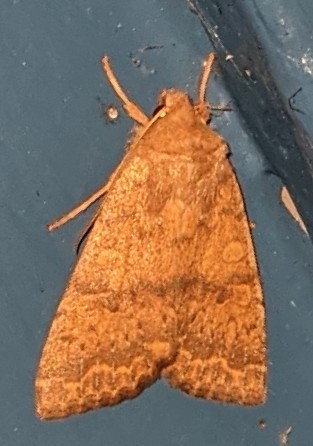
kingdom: Animalia
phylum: Arthropoda
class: Insecta
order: Lepidoptera
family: Noctuidae
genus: Agrochola
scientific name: Agrochola bicolorago
